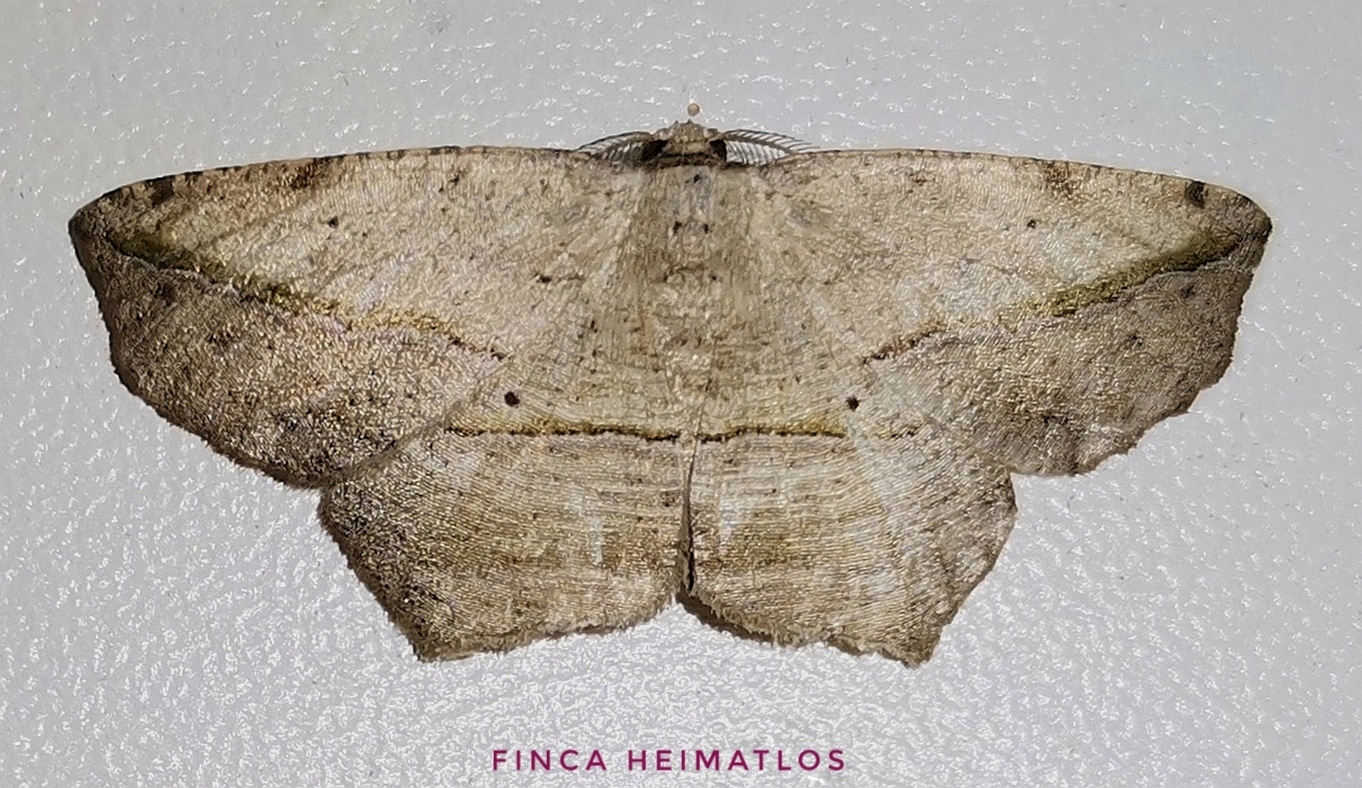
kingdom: Animalia
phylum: Arthropoda
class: Insecta
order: Lepidoptera
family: Geometridae
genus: Eusarca
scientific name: Eusarca flexilis
